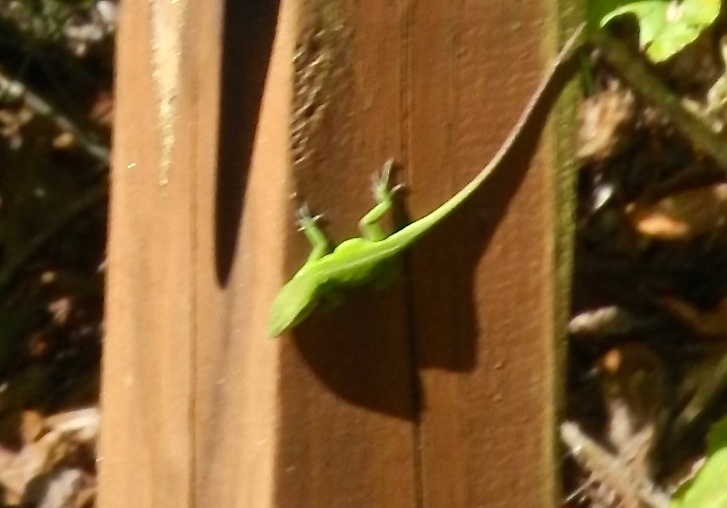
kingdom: Animalia
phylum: Chordata
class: Squamata
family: Dactyloidae
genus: Anolis
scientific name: Anolis carolinensis
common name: Green anole
